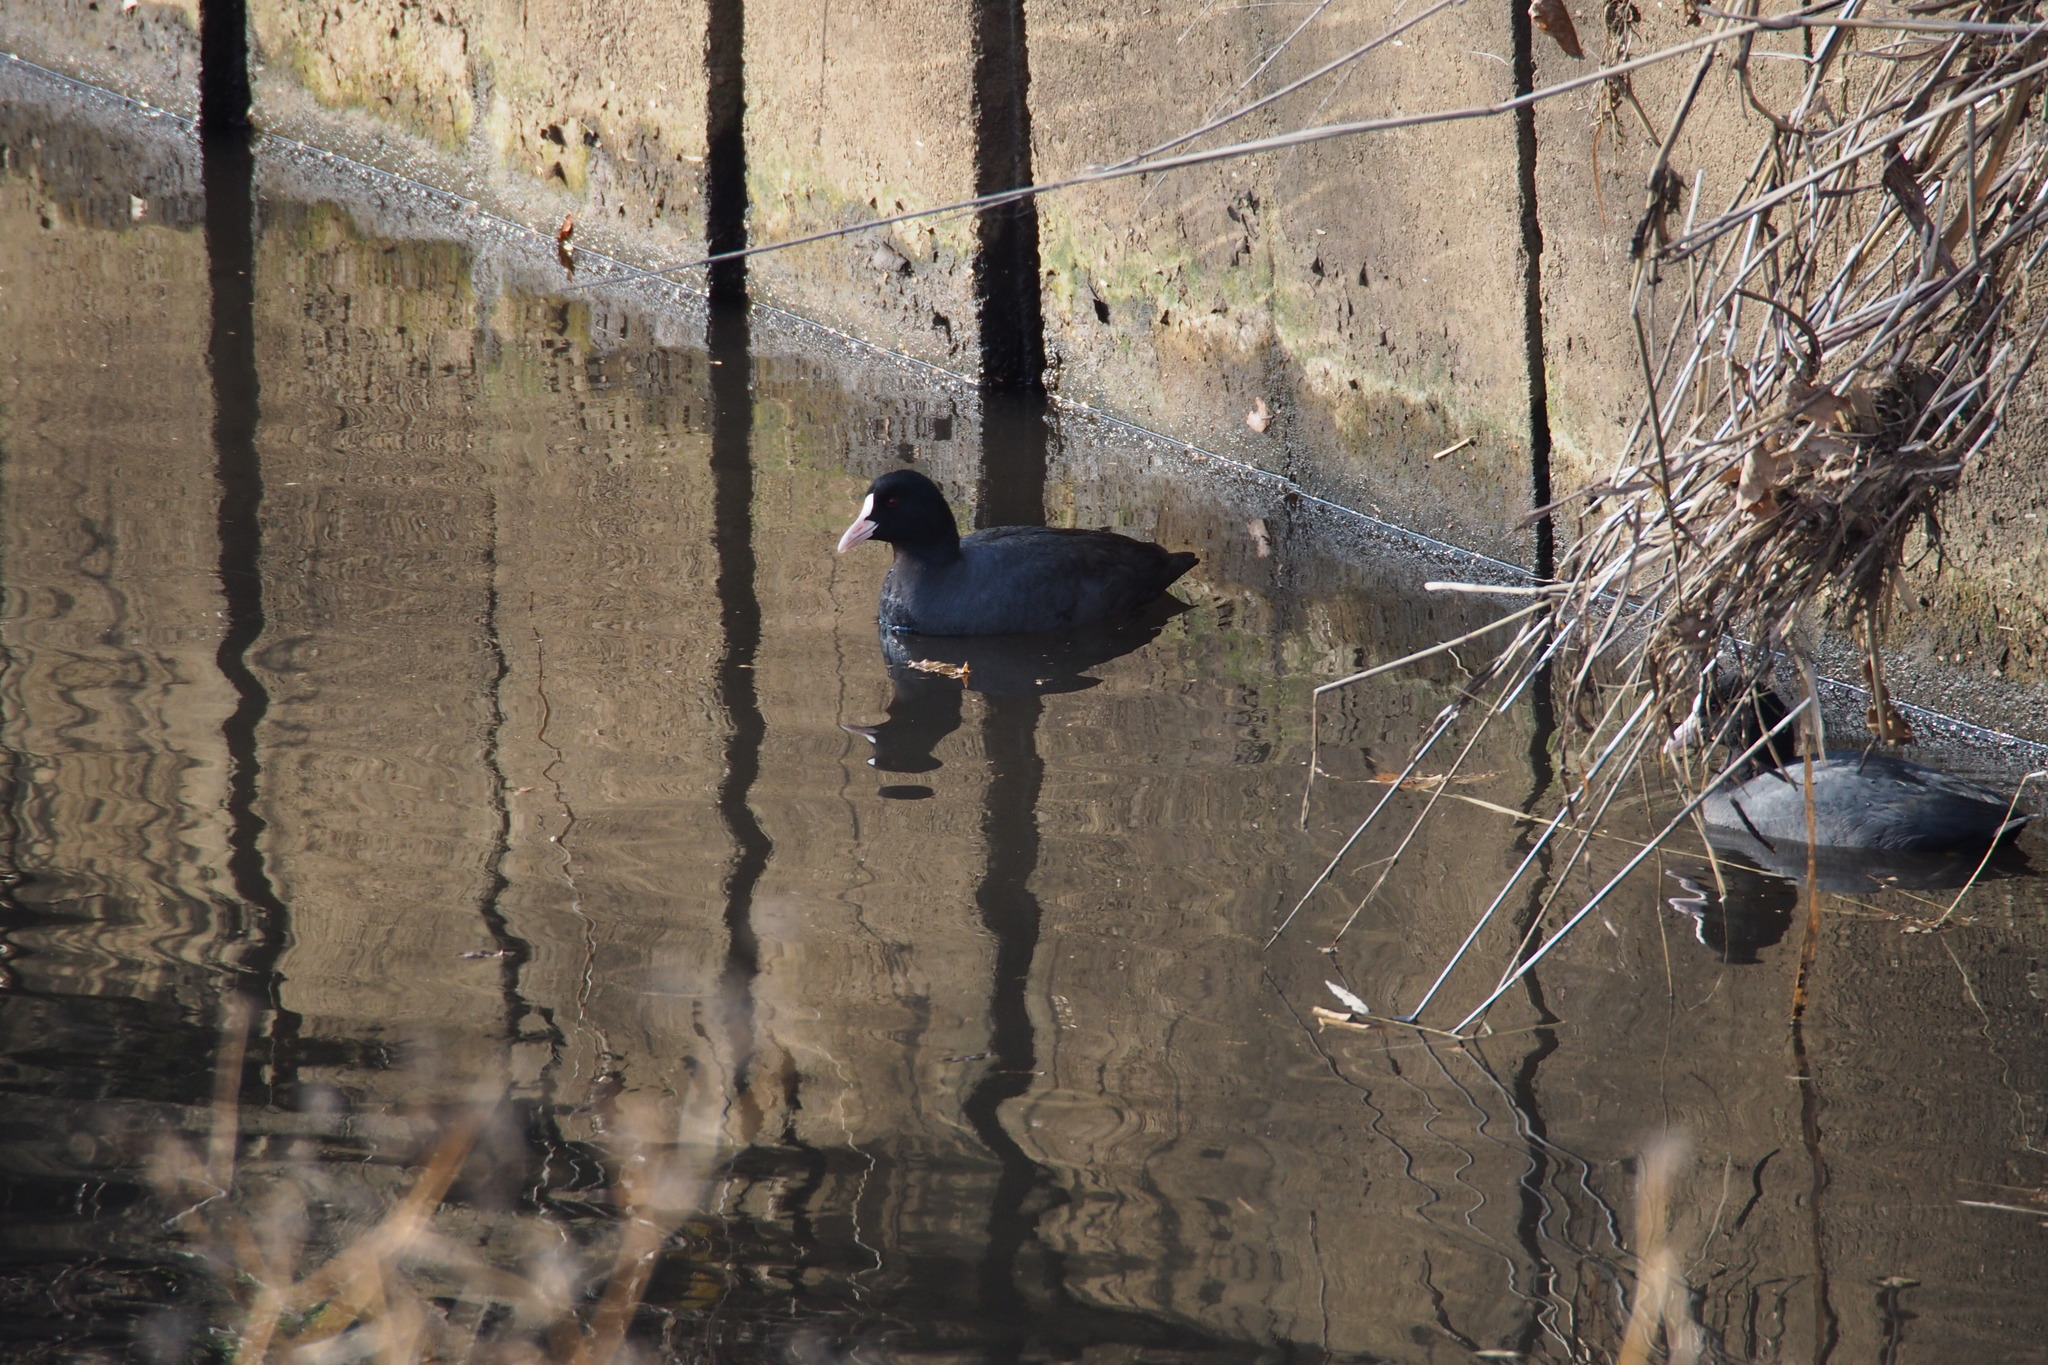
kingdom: Animalia
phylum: Chordata
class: Aves
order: Gruiformes
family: Rallidae
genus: Fulica
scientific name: Fulica atra
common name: Eurasian coot
